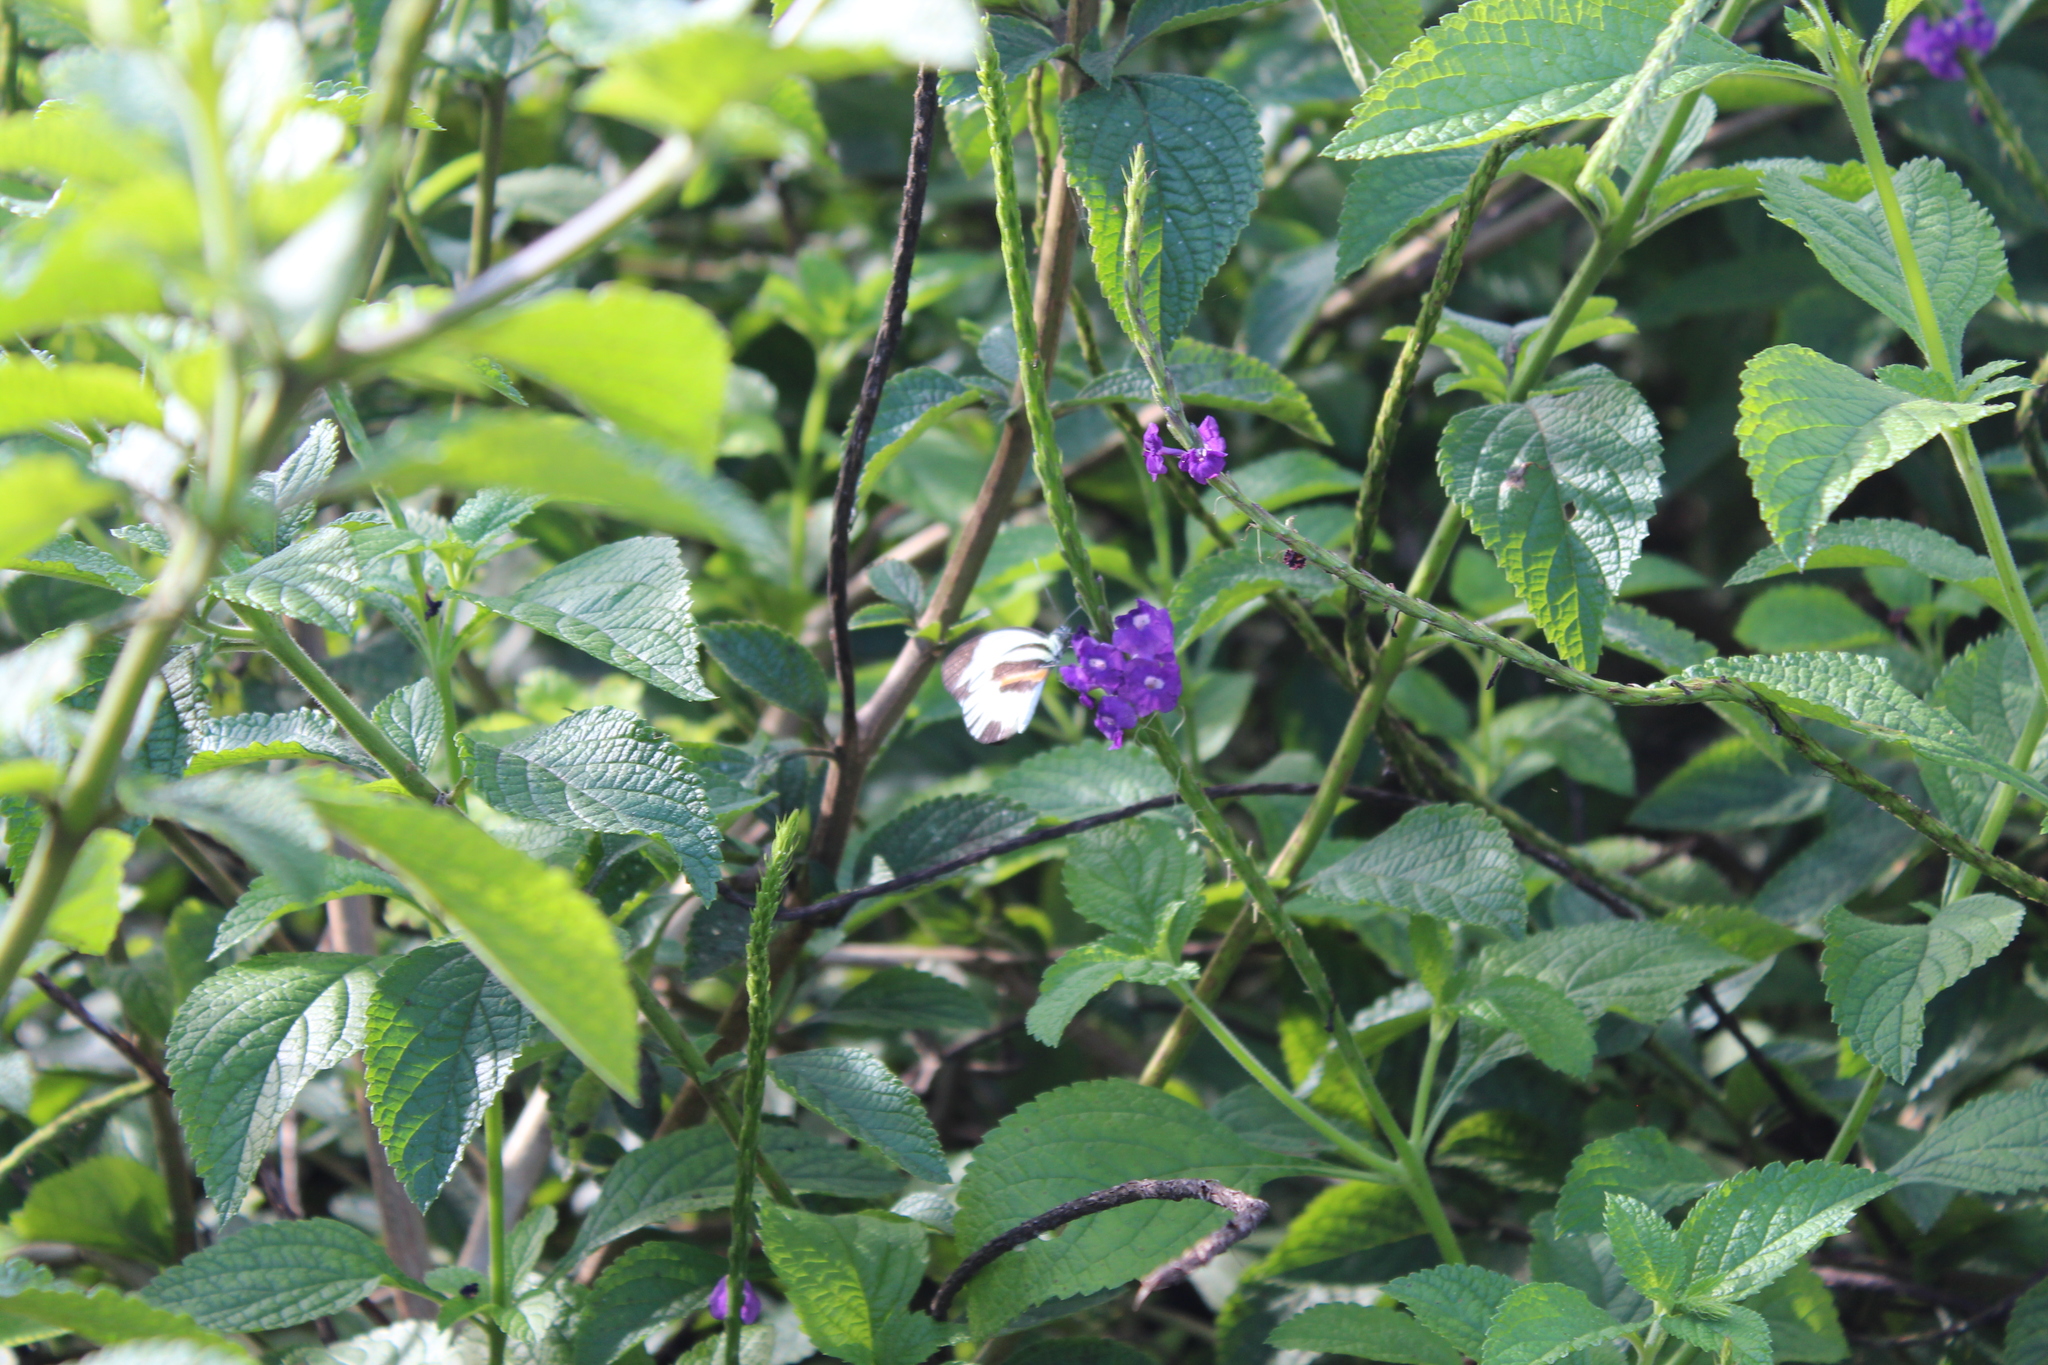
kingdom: Animalia
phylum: Arthropoda
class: Insecta
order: Lepidoptera
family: Pieridae
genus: Perrhybris
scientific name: Perrhybris pamela
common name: Chiapas white
